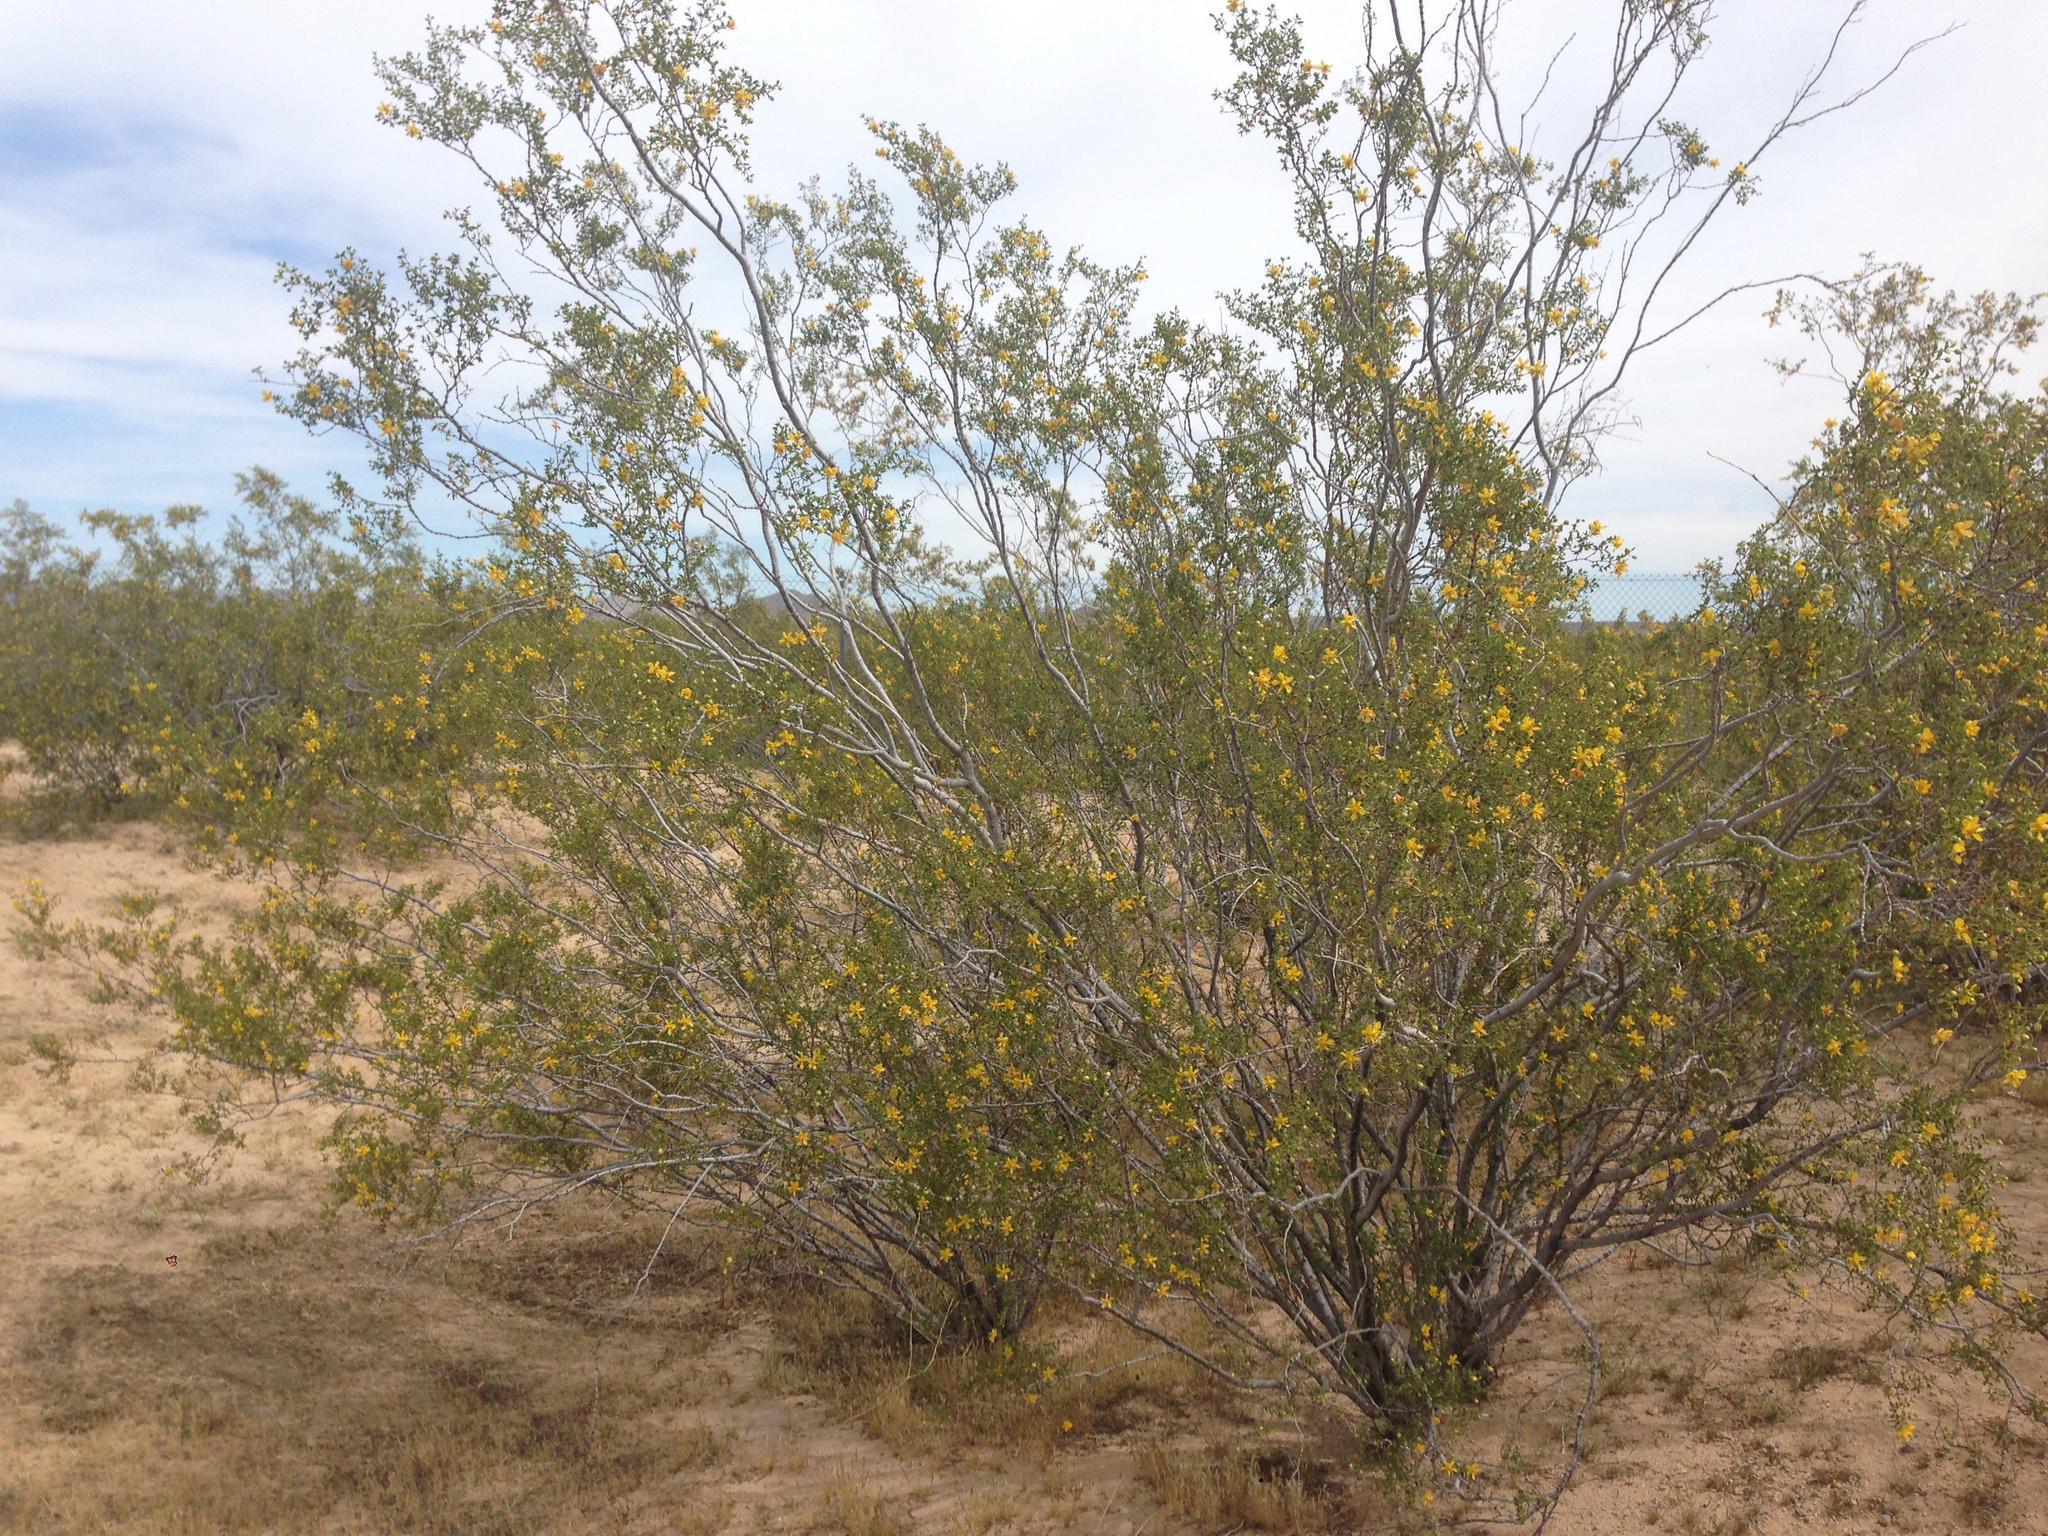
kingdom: Plantae
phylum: Tracheophyta
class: Magnoliopsida
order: Zygophyllales
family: Zygophyllaceae
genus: Larrea
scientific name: Larrea tridentata
